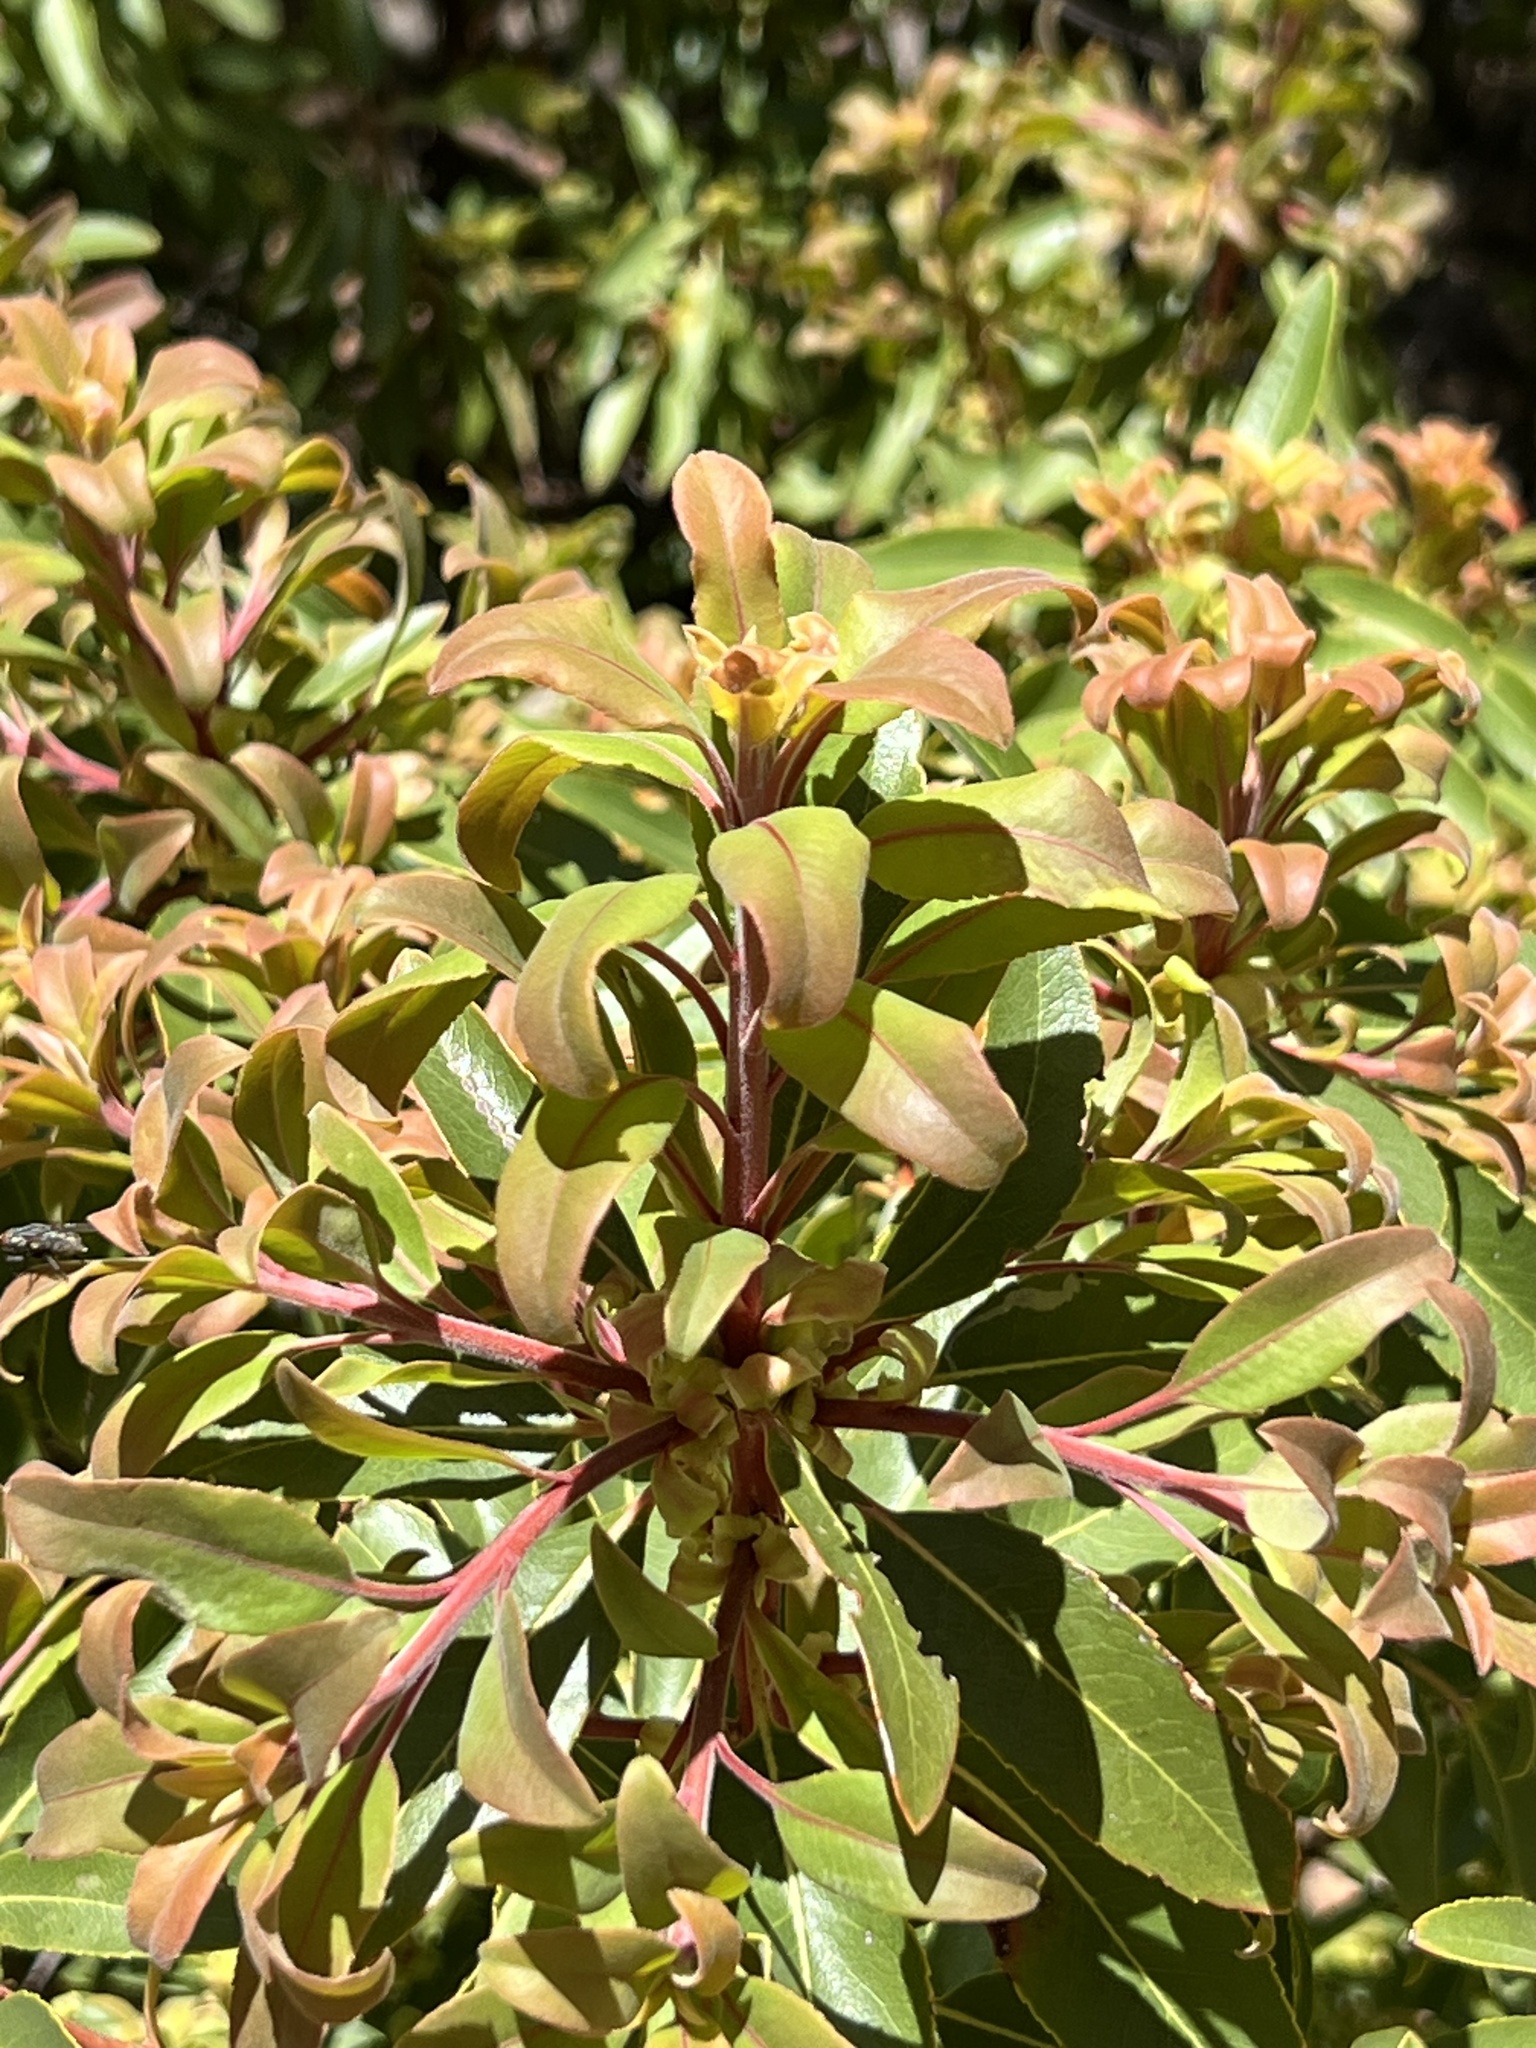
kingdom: Plantae
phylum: Tracheophyta
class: Magnoliopsida
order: Ericales
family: Ericaceae
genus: Arbutus
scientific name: Arbutus arizonica
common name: Arizona madrone
